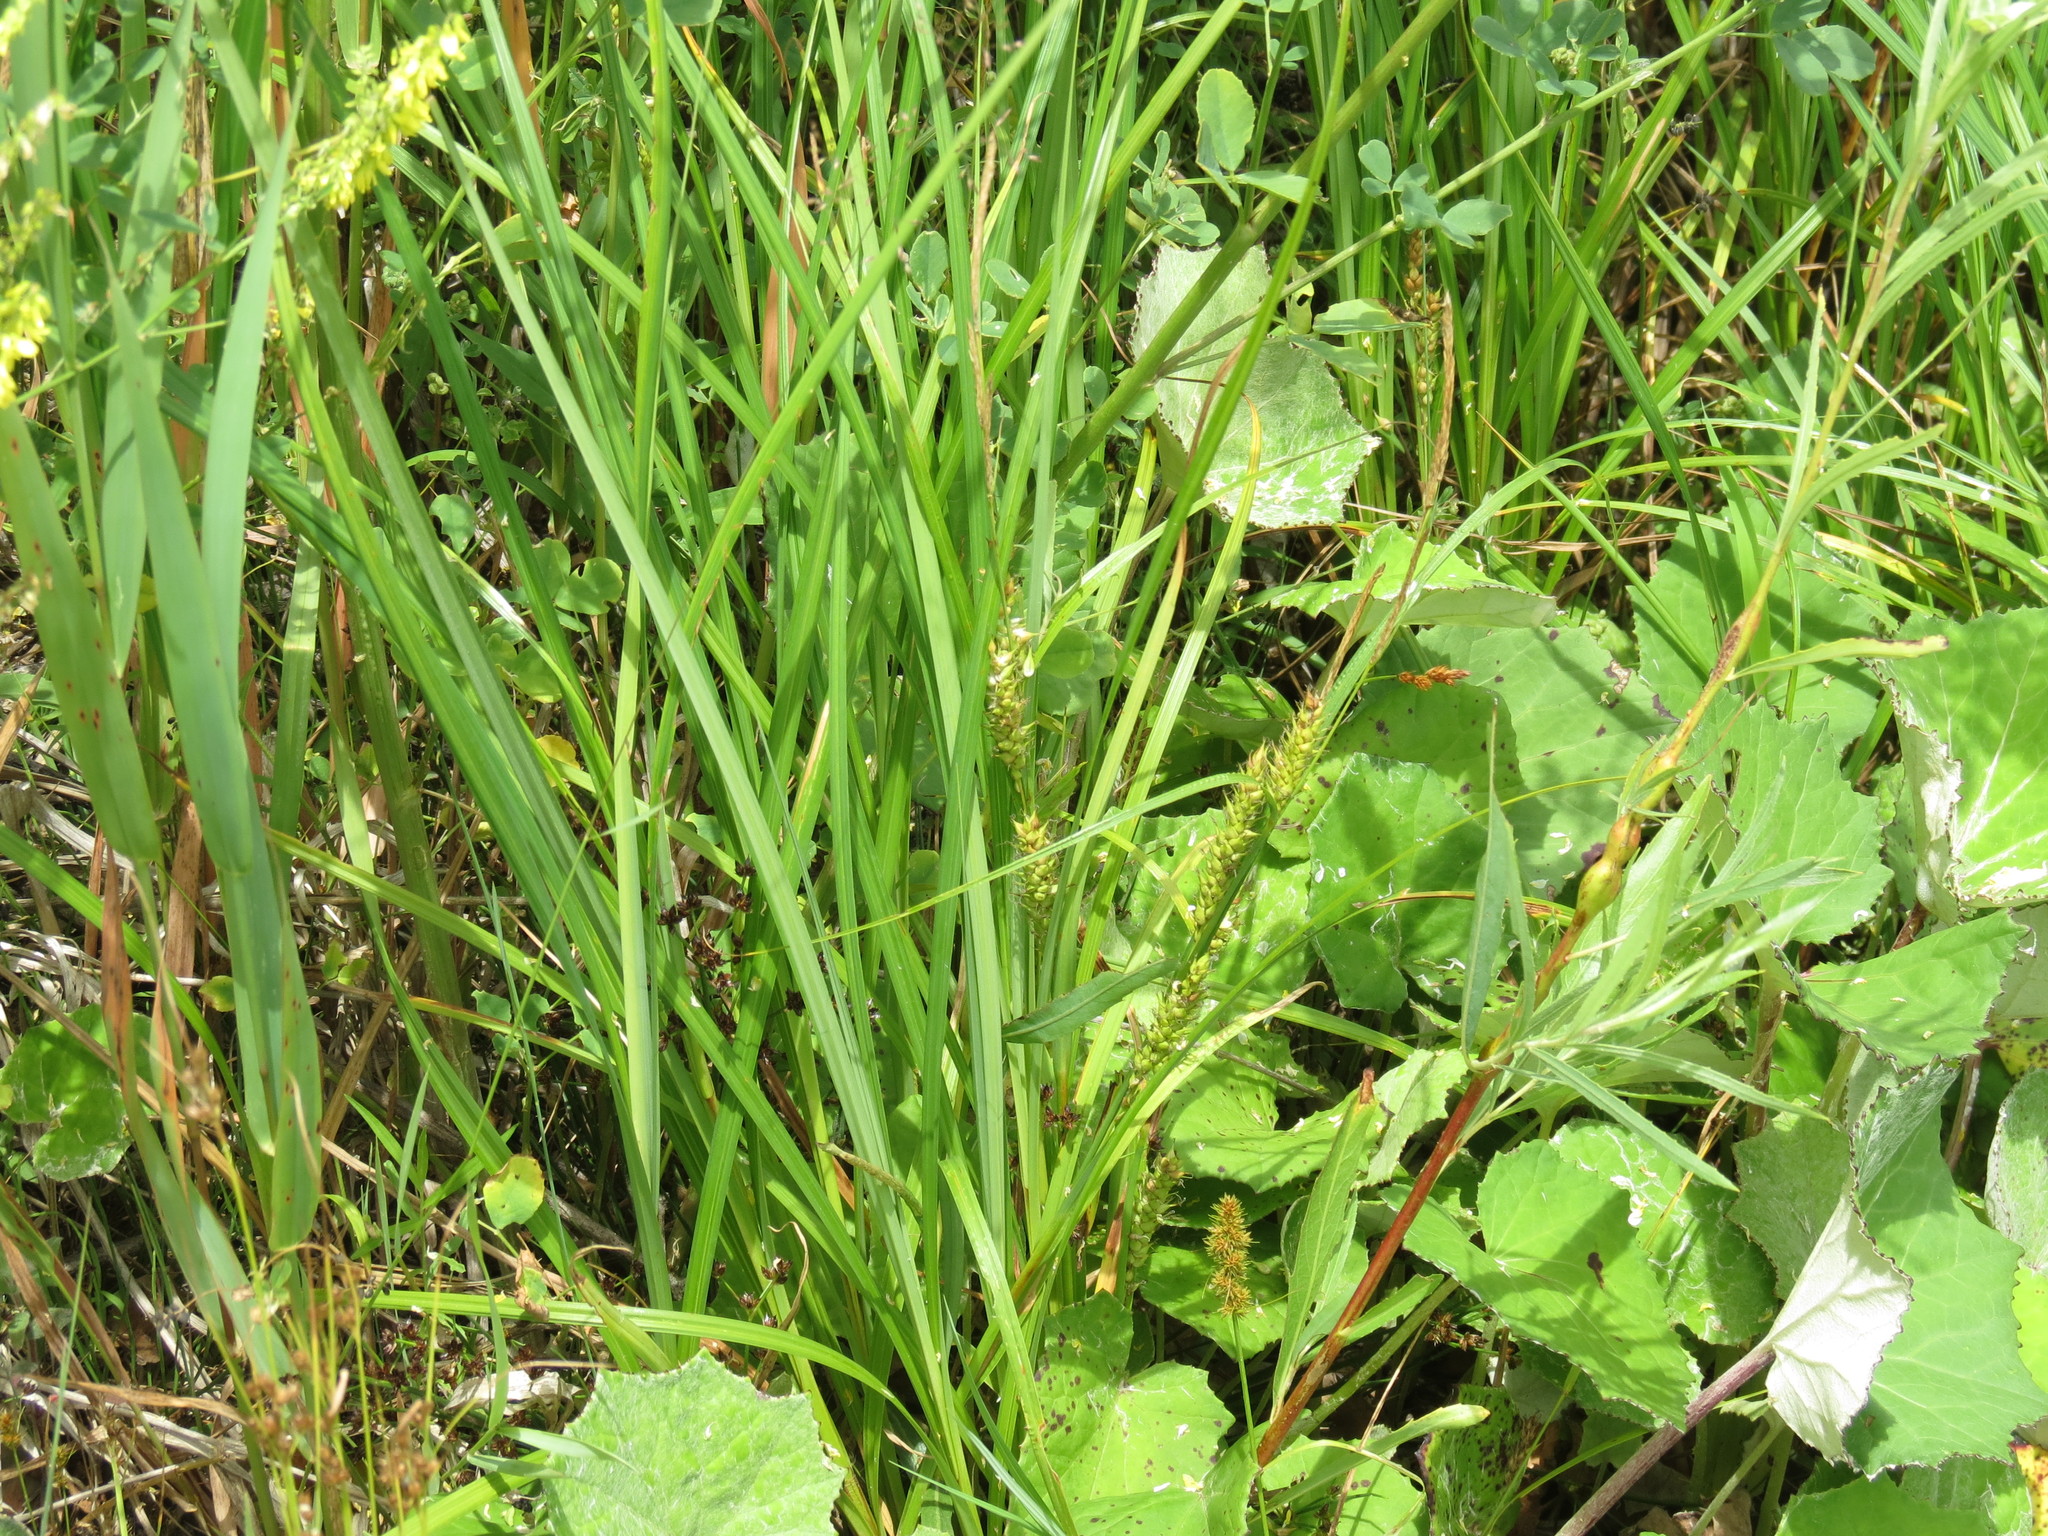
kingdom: Plantae
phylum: Tracheophyta
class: Liliopsida
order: Poales
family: Cyperaceae
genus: Carex
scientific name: Carex atherodes
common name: Wheat sedge
